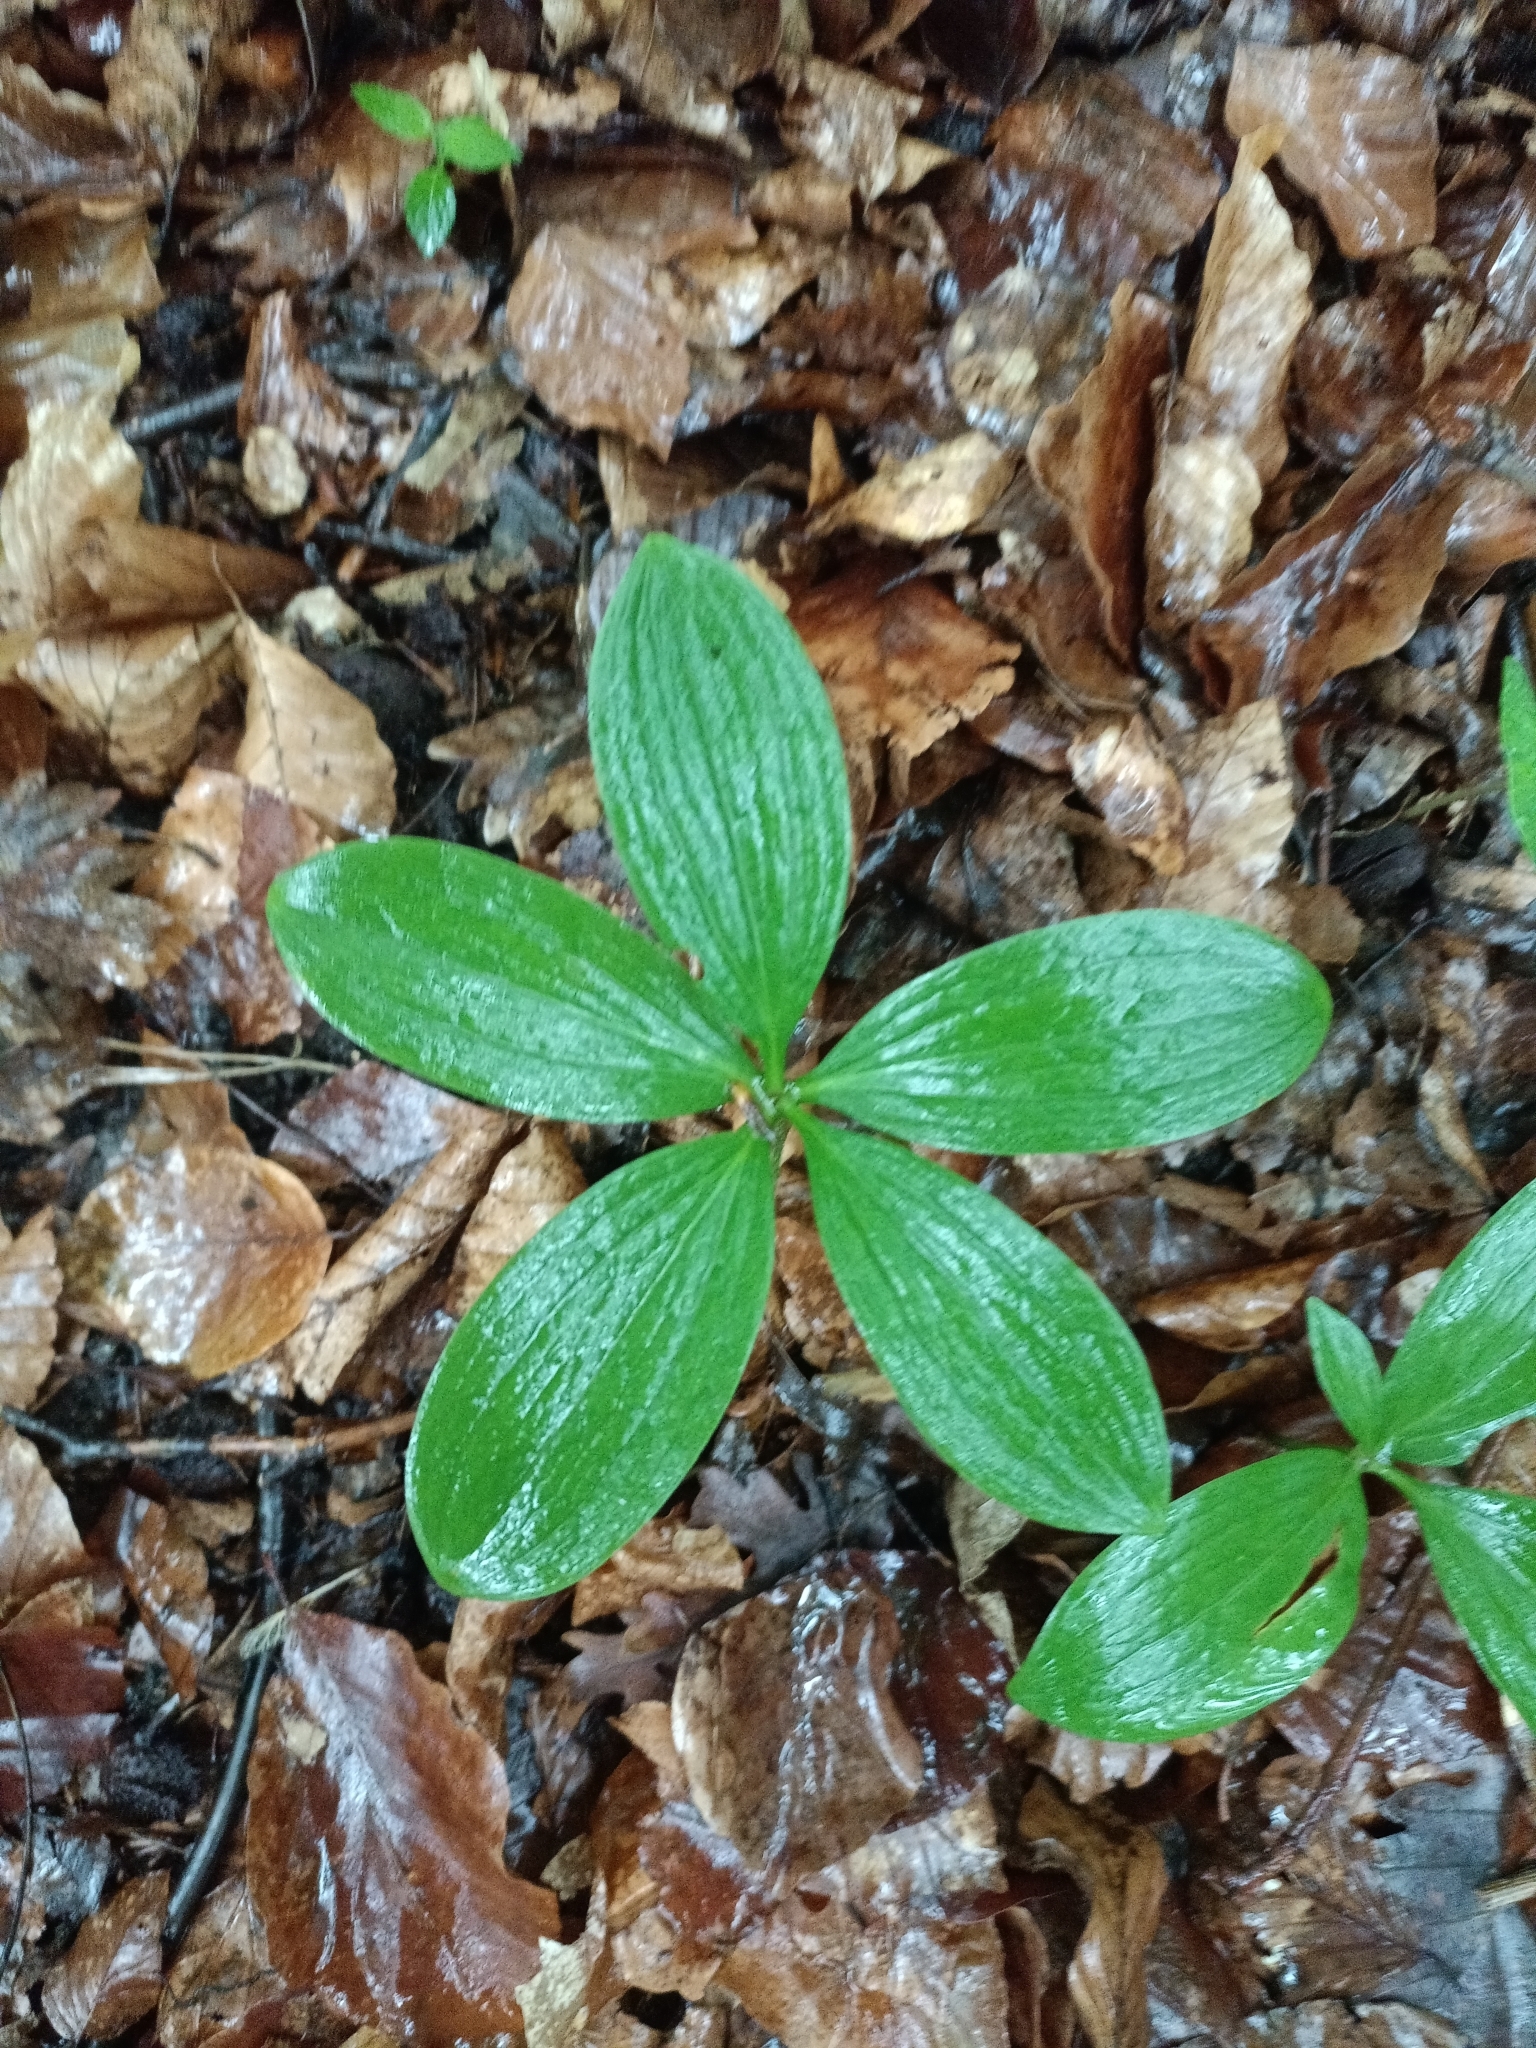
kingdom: Plantae
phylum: Tracheophyta
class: Liliopsida
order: Liliales
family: Liliaceae
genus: Lilium
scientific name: Lilium martagon
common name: Martagon lily
